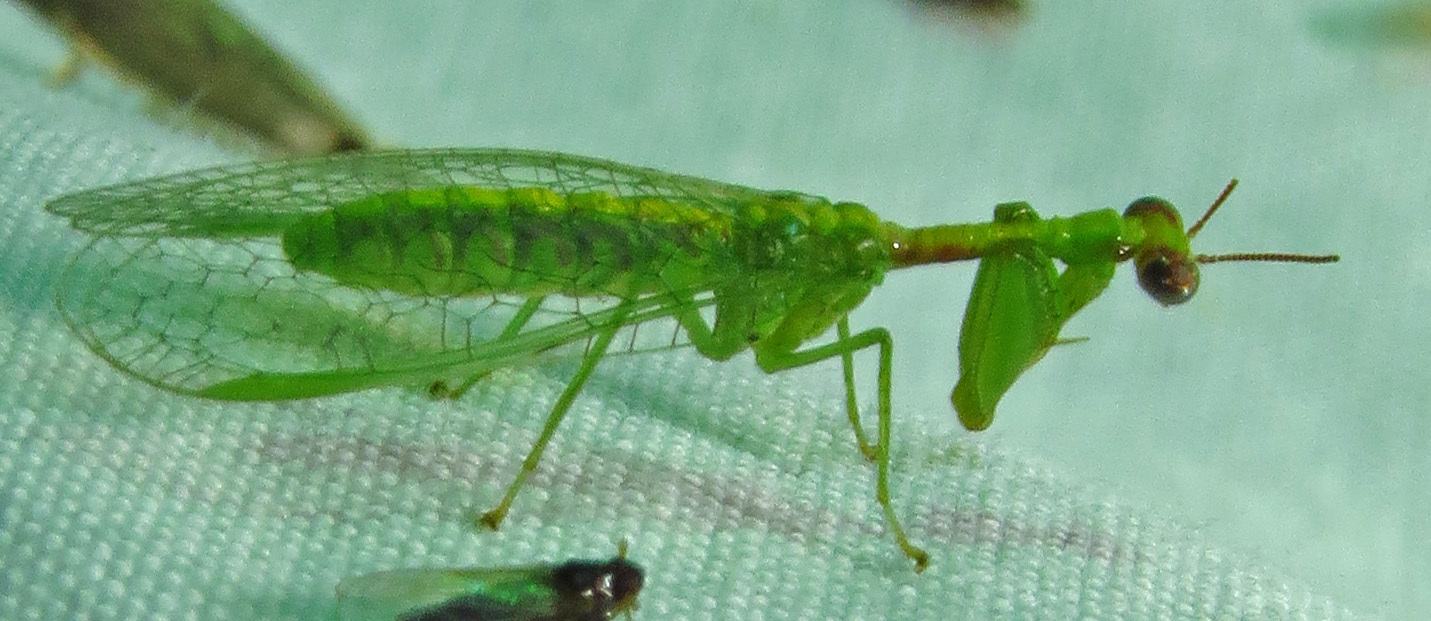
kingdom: Animalia
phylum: Arthropoda
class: Insecta
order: Neuroptera
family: Mantispidae
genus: Zeugomantispa
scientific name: Zeugomantispa minuta
